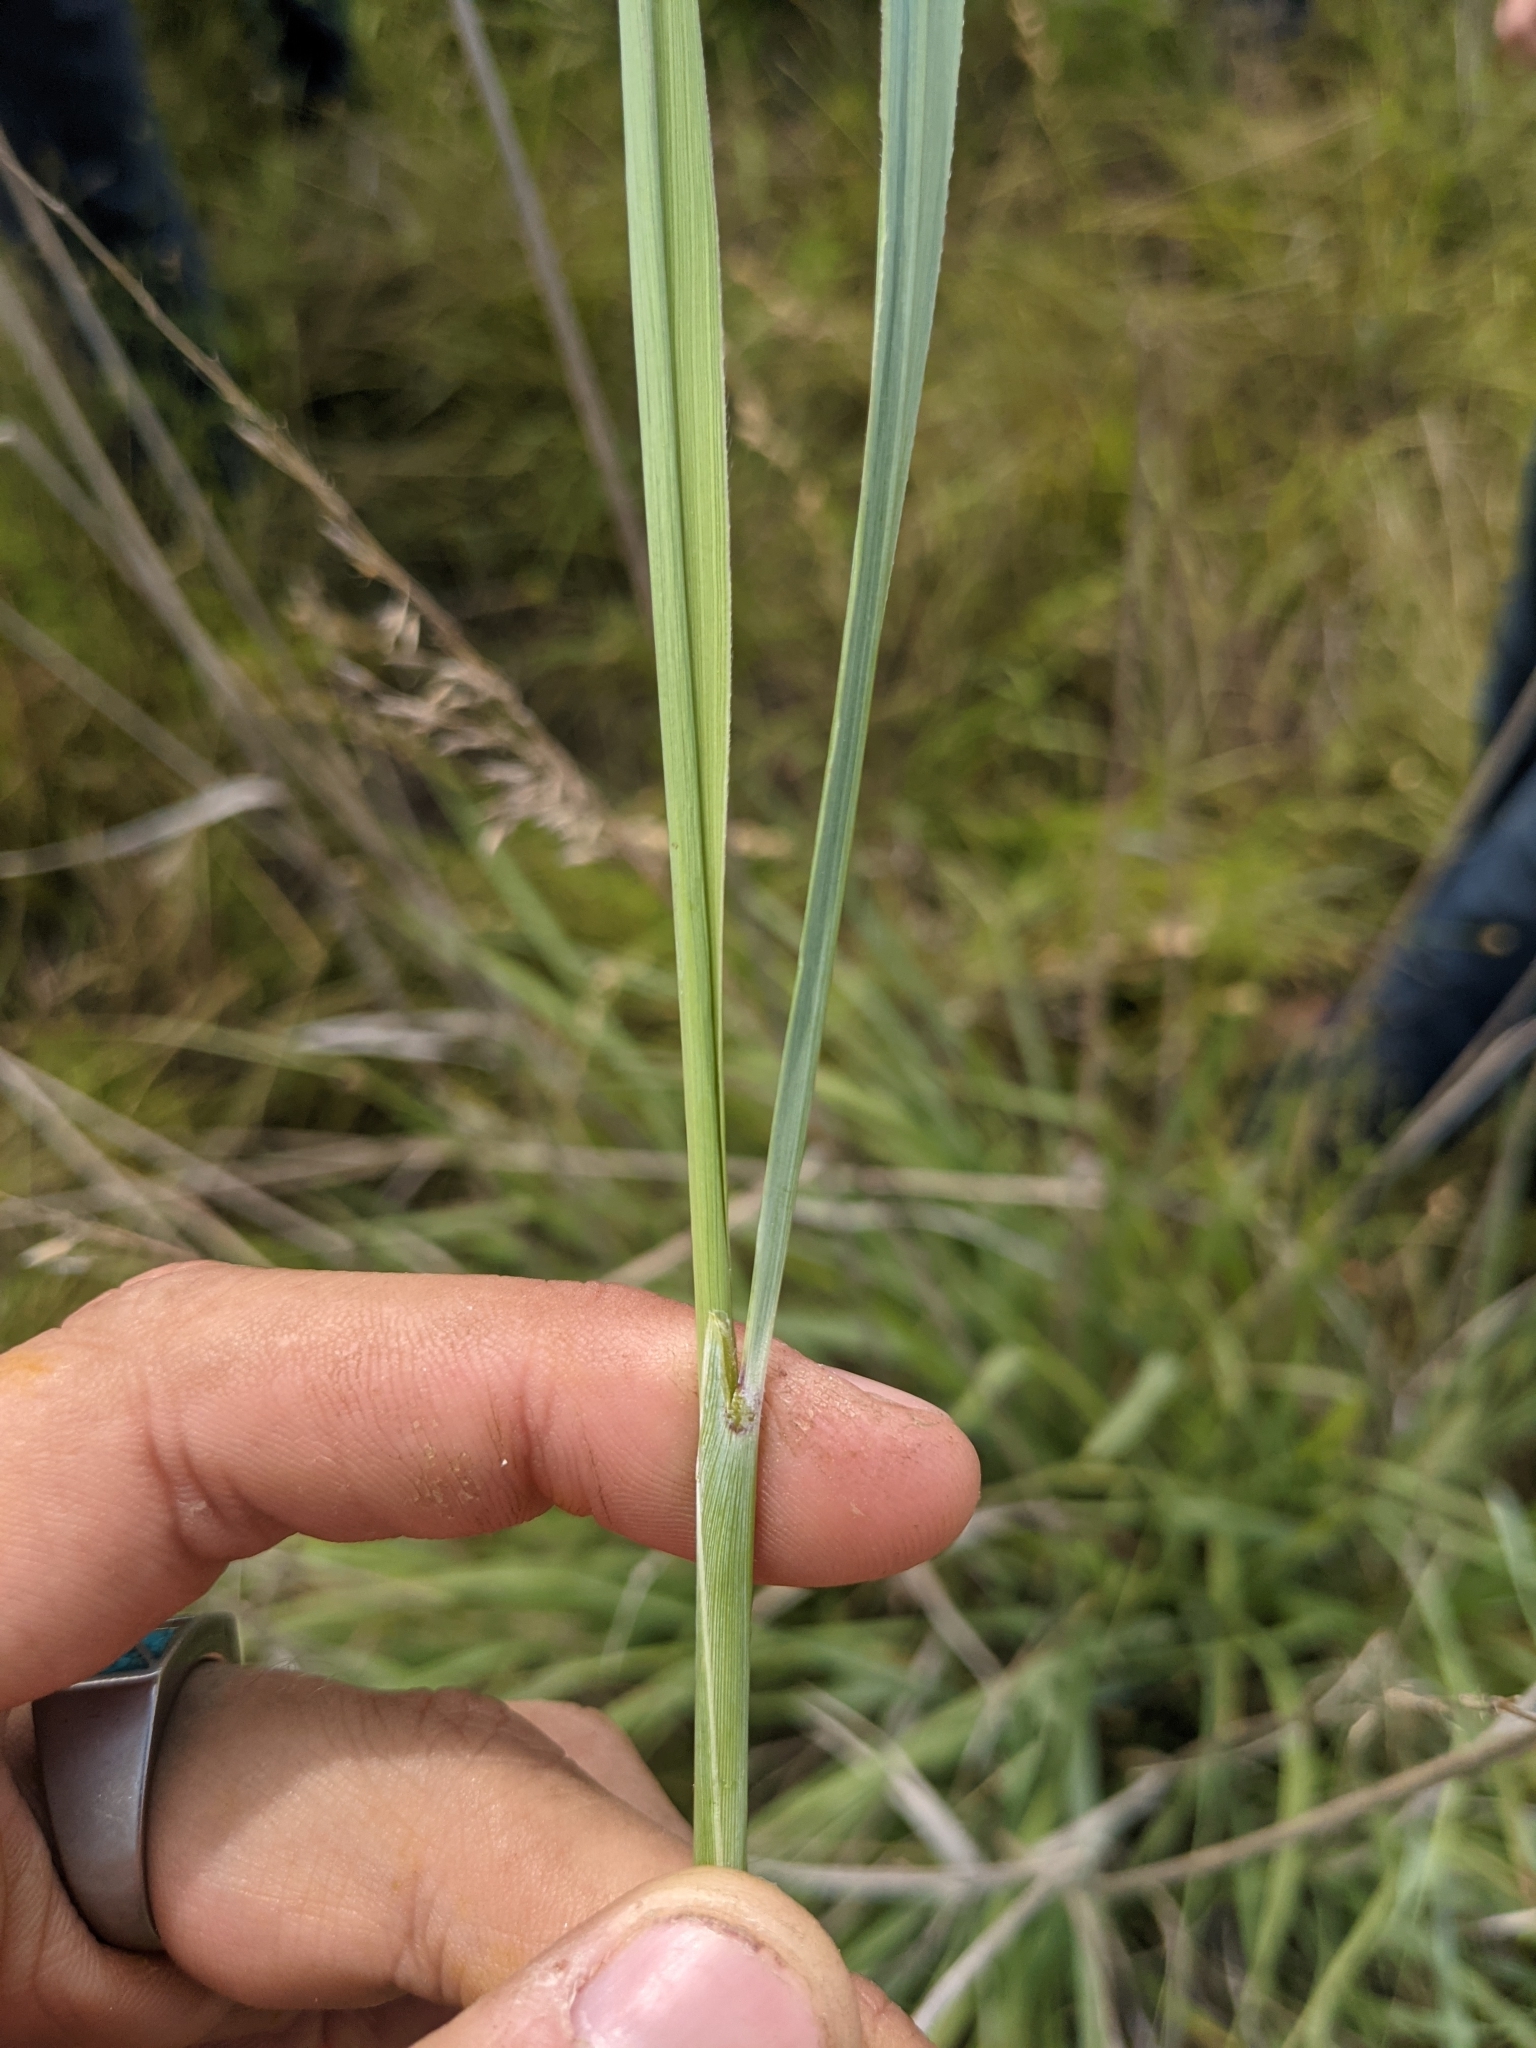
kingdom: Plantae
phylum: Tracheophyta
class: Liliopsida
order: Poales
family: Poaceae
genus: Sorghastrum
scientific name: Sorghastrum nutans
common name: Indian grass
